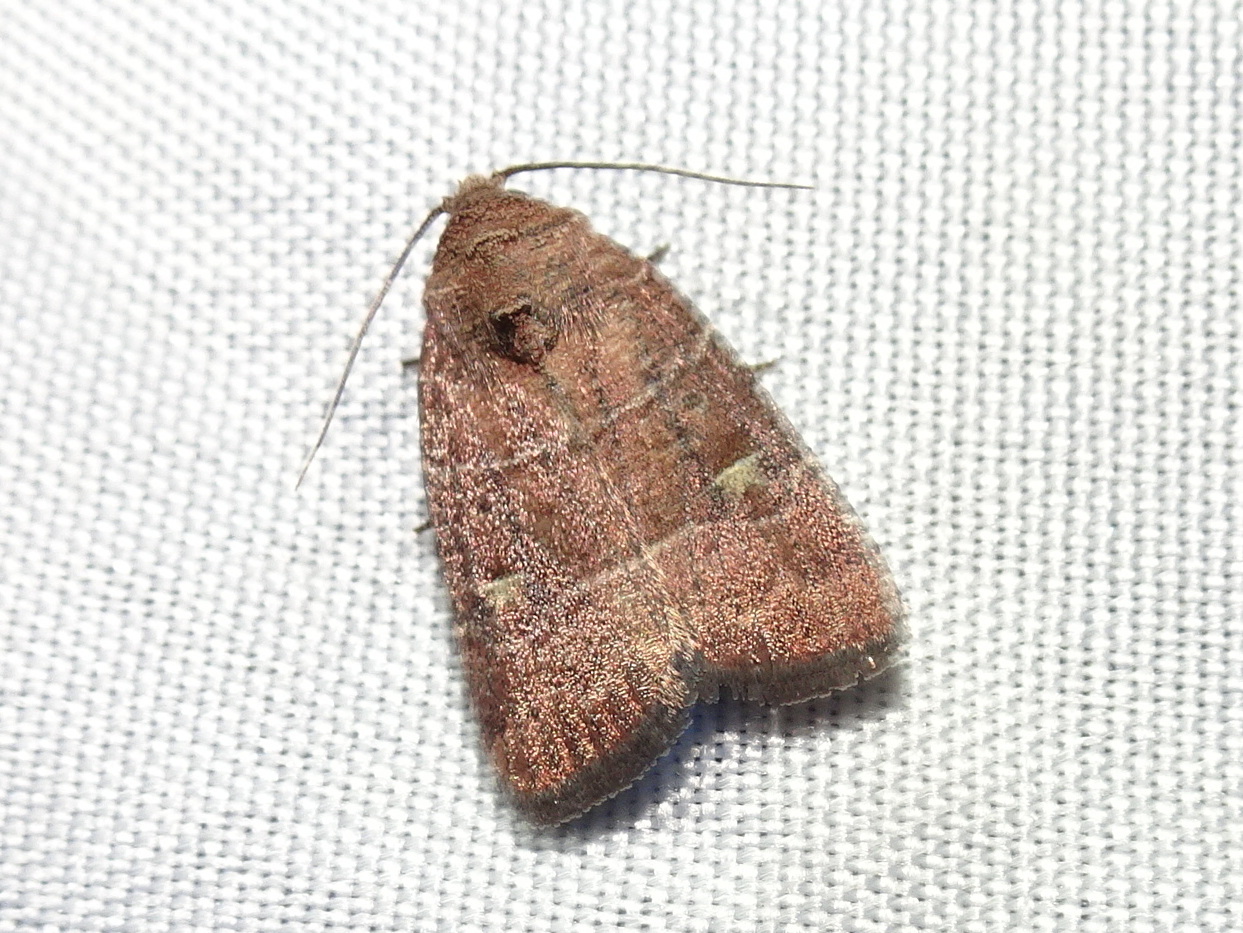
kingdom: Animalia
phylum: Arthropoda
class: Insecta
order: Lepidoptera
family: Noctuidae
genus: Elaphria
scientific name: Elaphria grata
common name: Grateful midget moth
